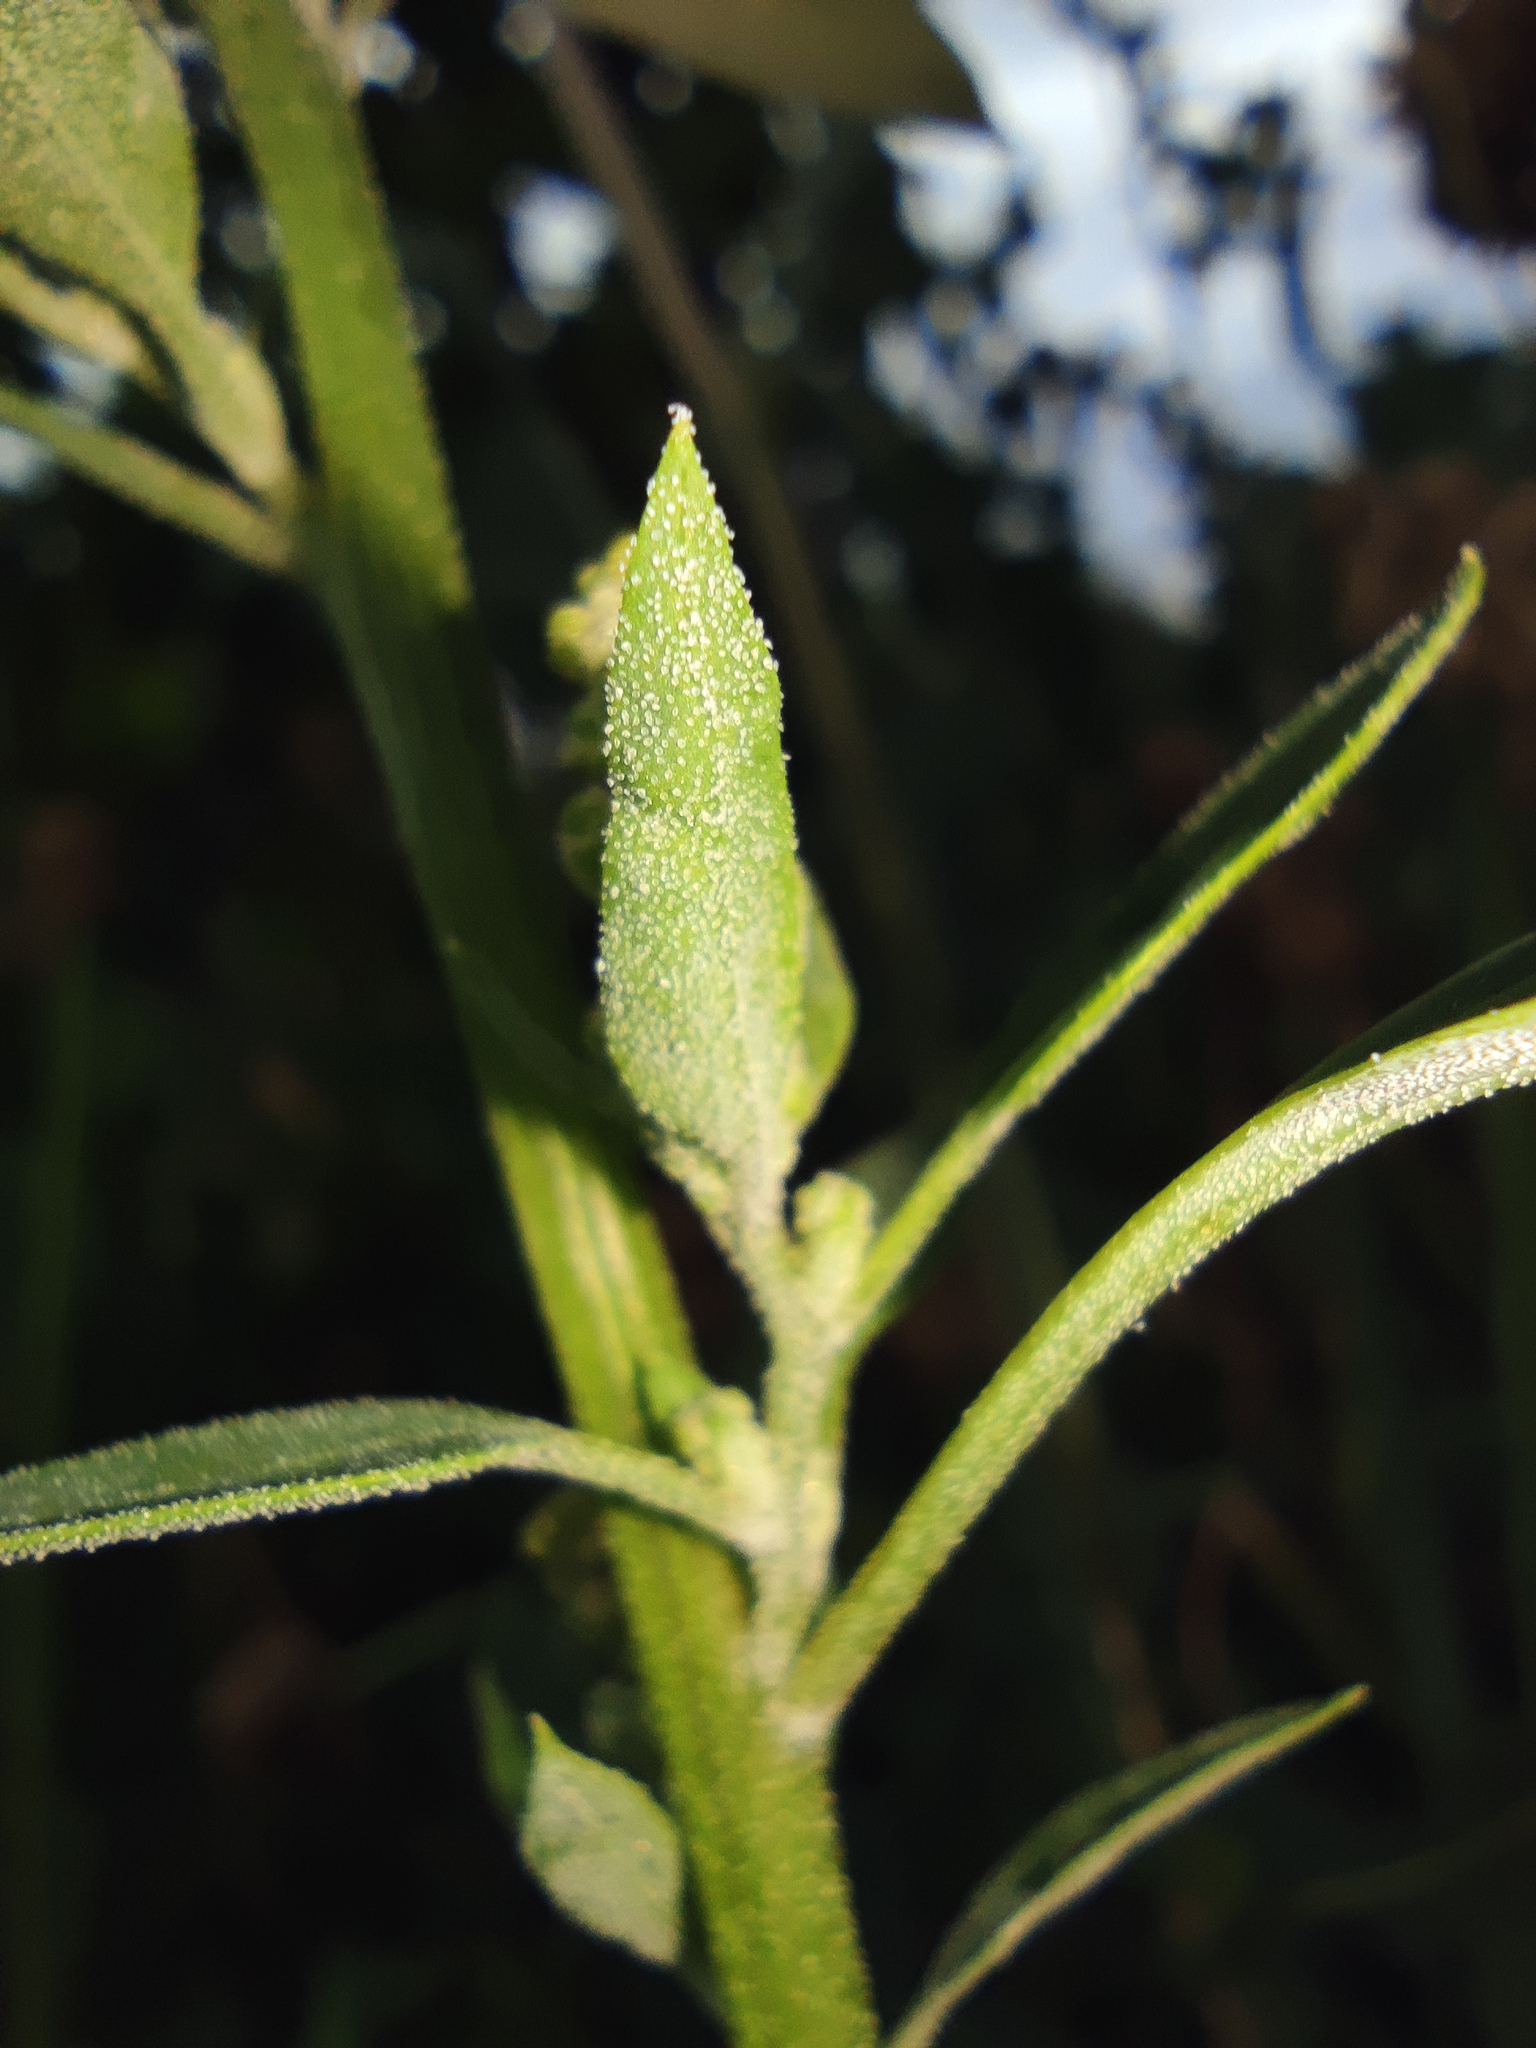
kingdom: Plantae
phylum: Tracheophyta
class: Magnoliopsida
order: Caryophyllales
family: Amaranthaceae
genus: Chenopodium
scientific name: Chenopodium album
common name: Fat-hen
